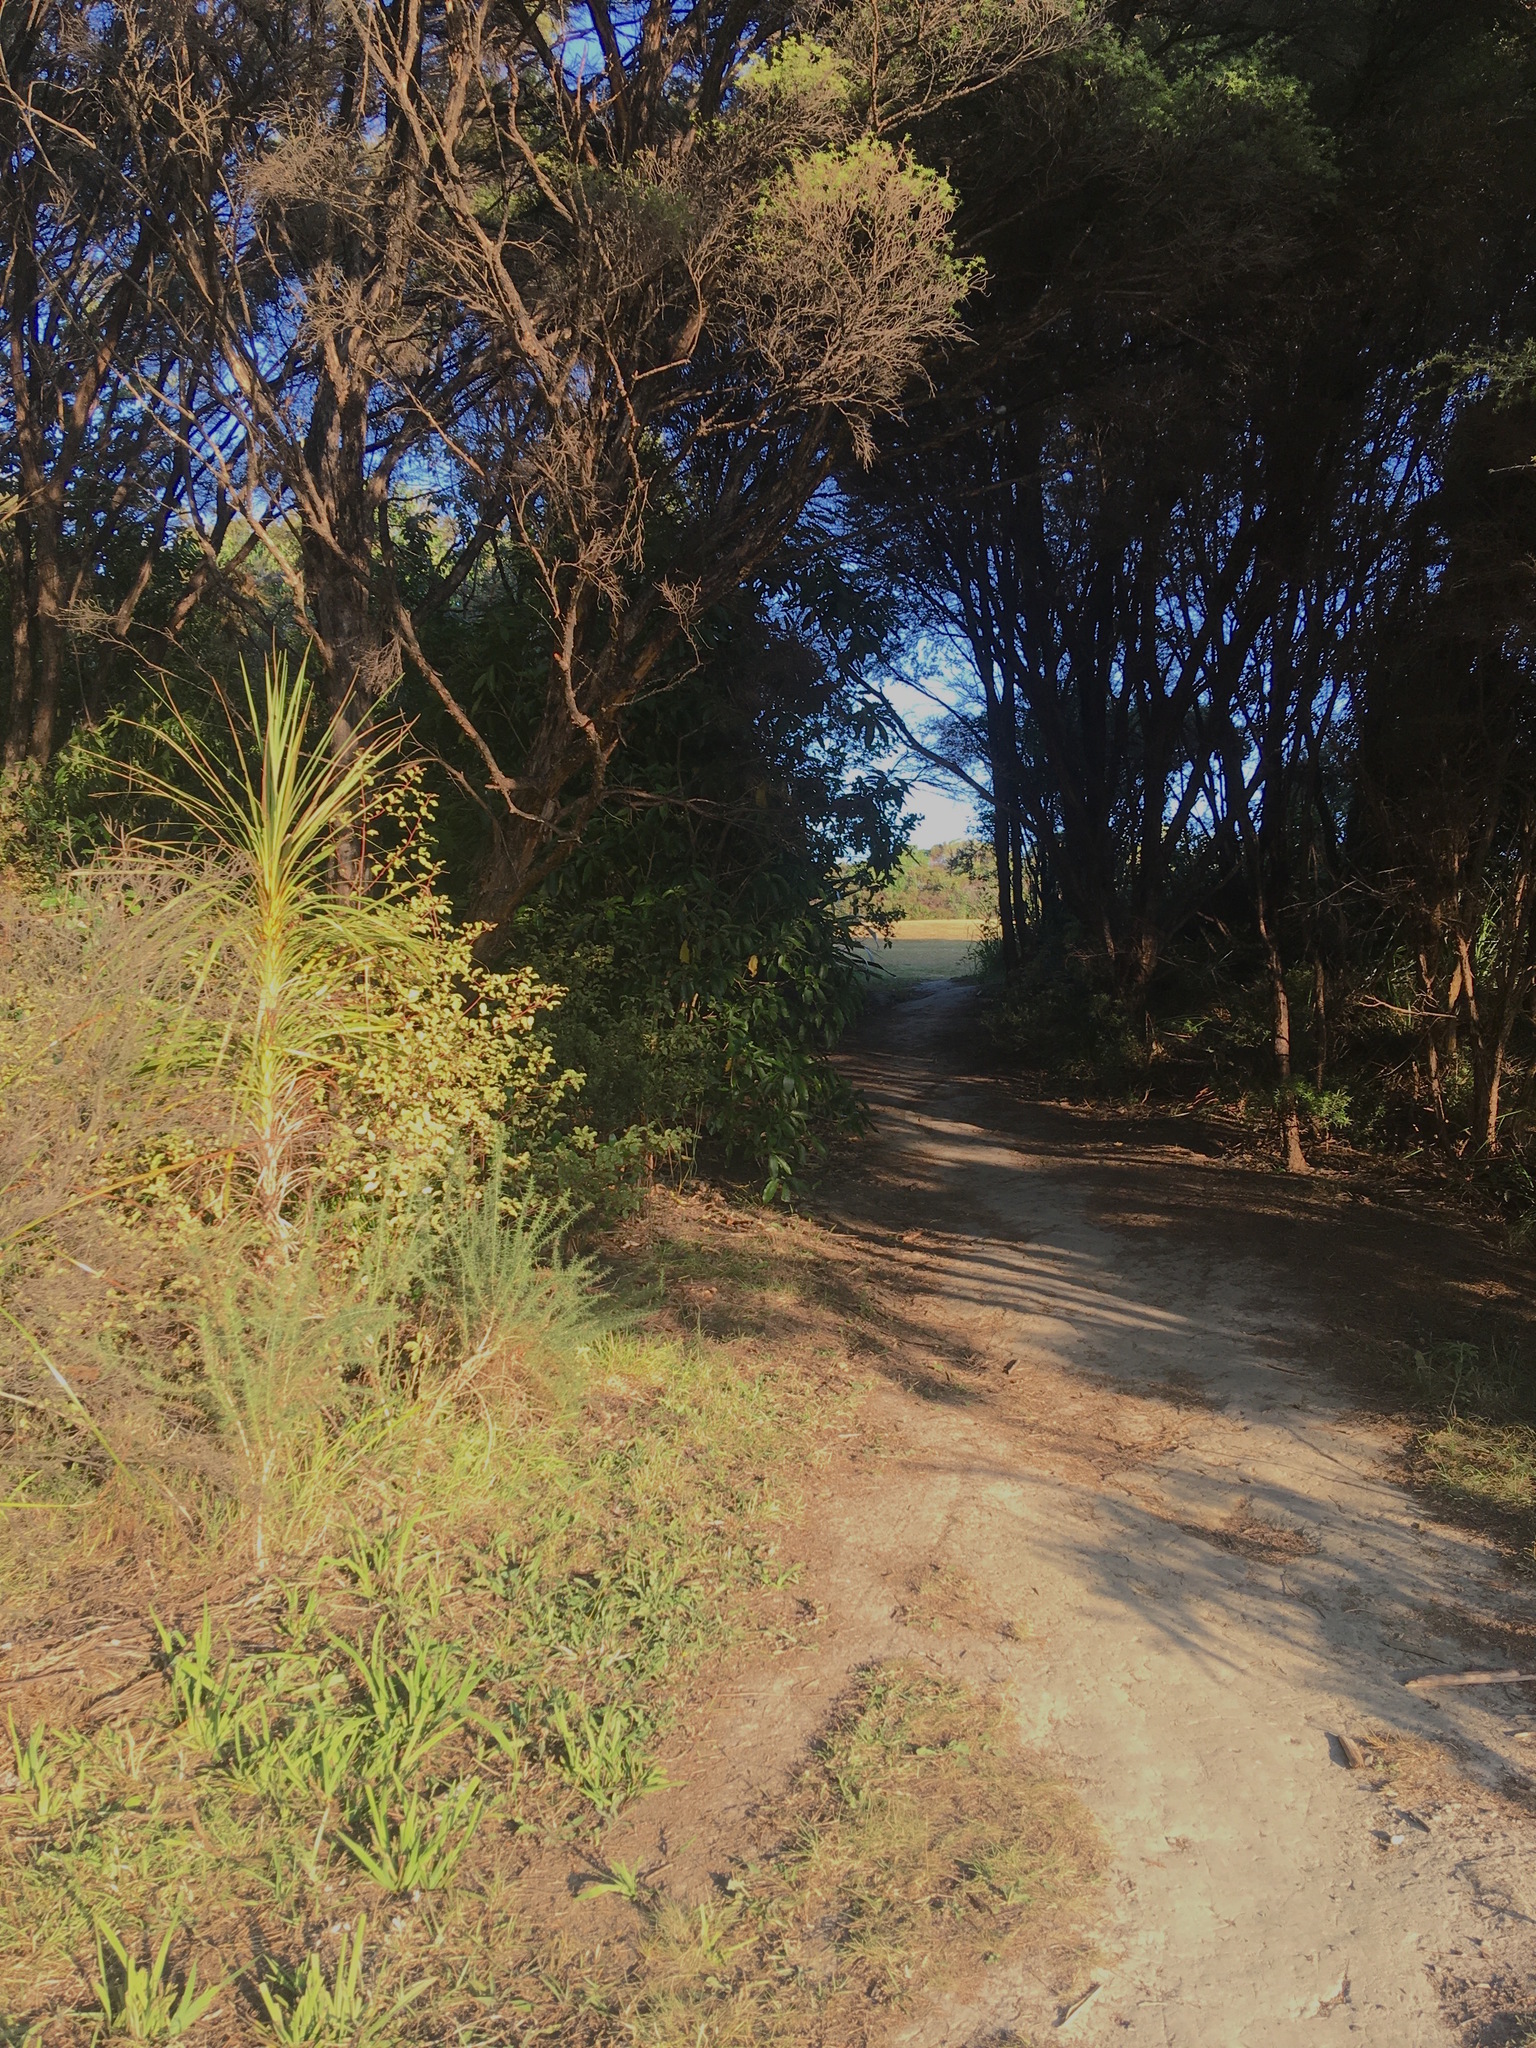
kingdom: Plantae
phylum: Tracheophyta
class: Liliopsida
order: Asparagales
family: Asparagaceae
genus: Cordyline
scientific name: Cordyline australis
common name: Cabbage-palm
